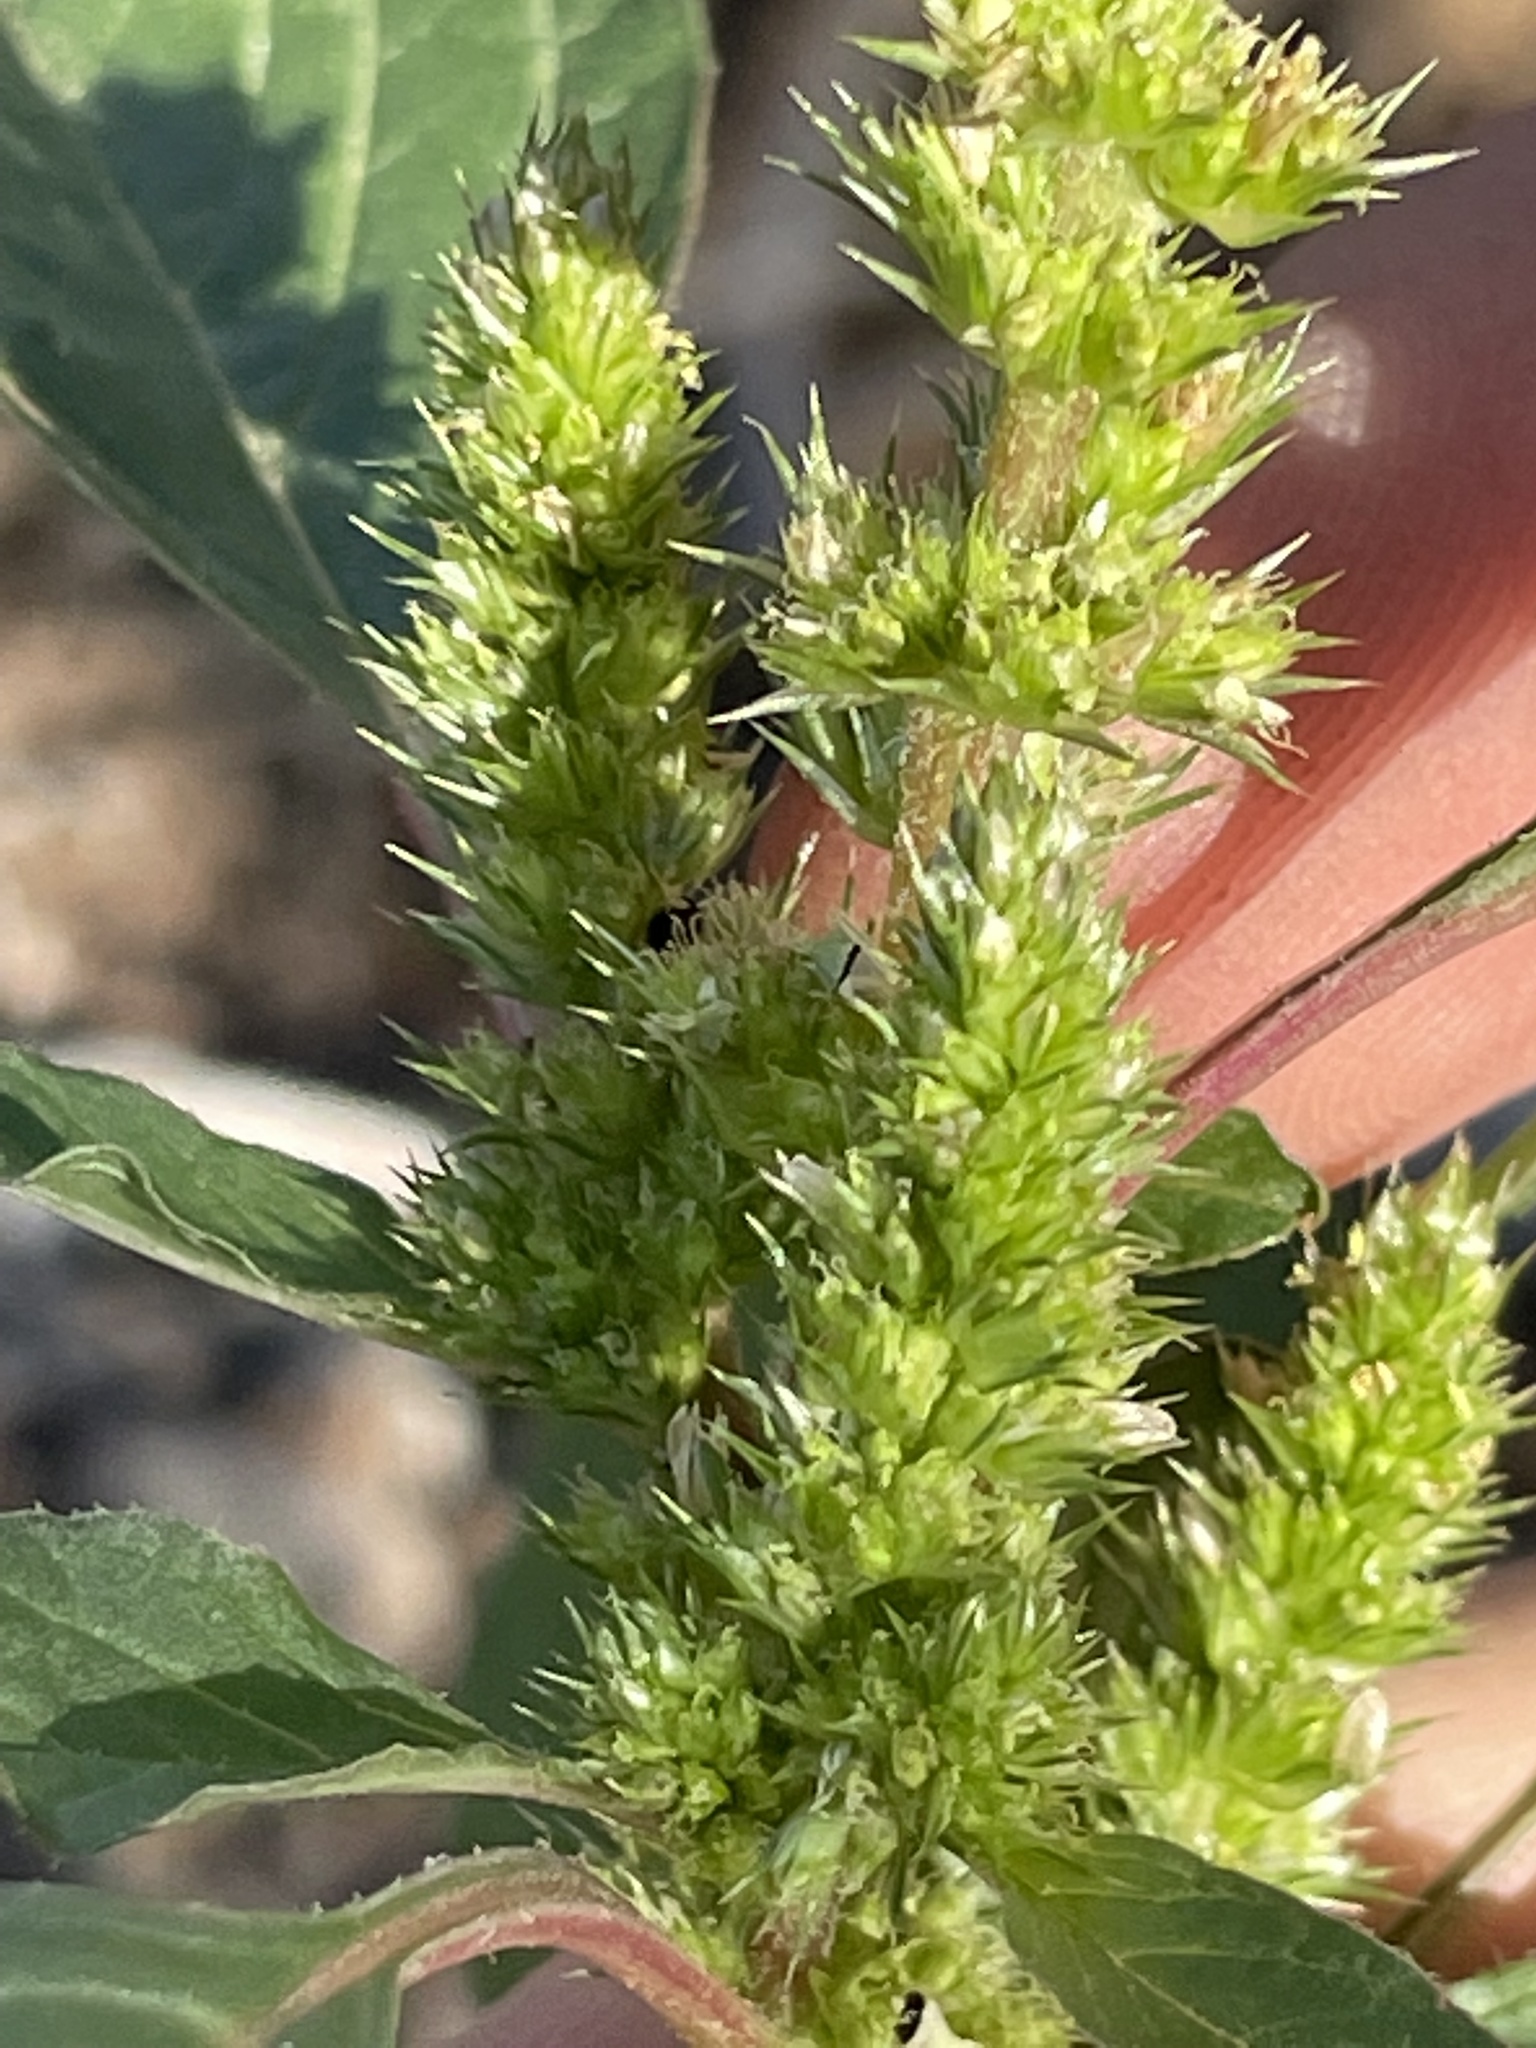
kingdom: Plantae
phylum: Tracheophyta
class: Magnoliopsida
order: Caryophyllales
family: Amaranthaceae
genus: Amaranthus
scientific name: Amaranthus retroflexus
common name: Redroot amaranth
